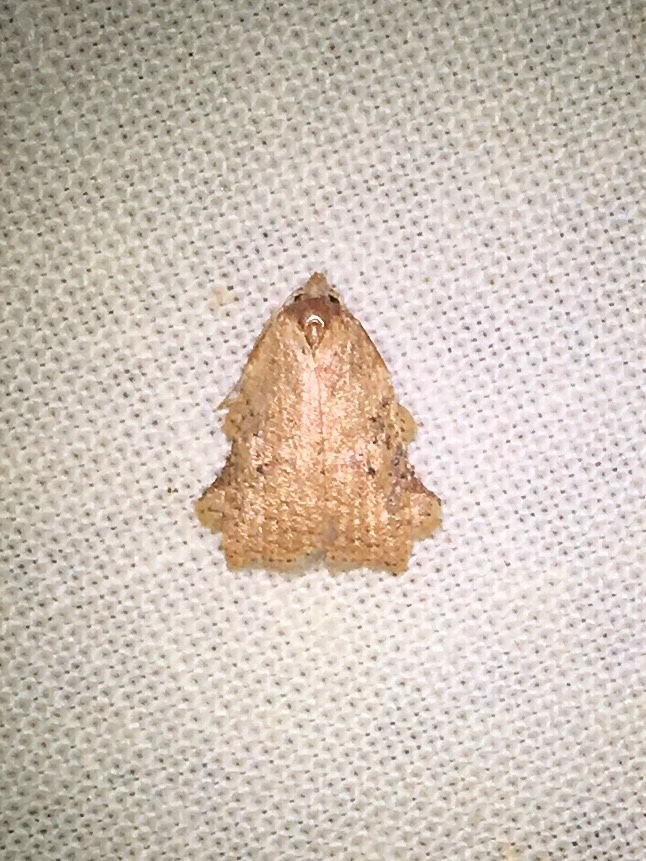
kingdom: Animalia
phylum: Arthropoda
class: Insecta
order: Lepidoptera
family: Tortricidae
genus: Amorbia
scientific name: Amorbia concavana
